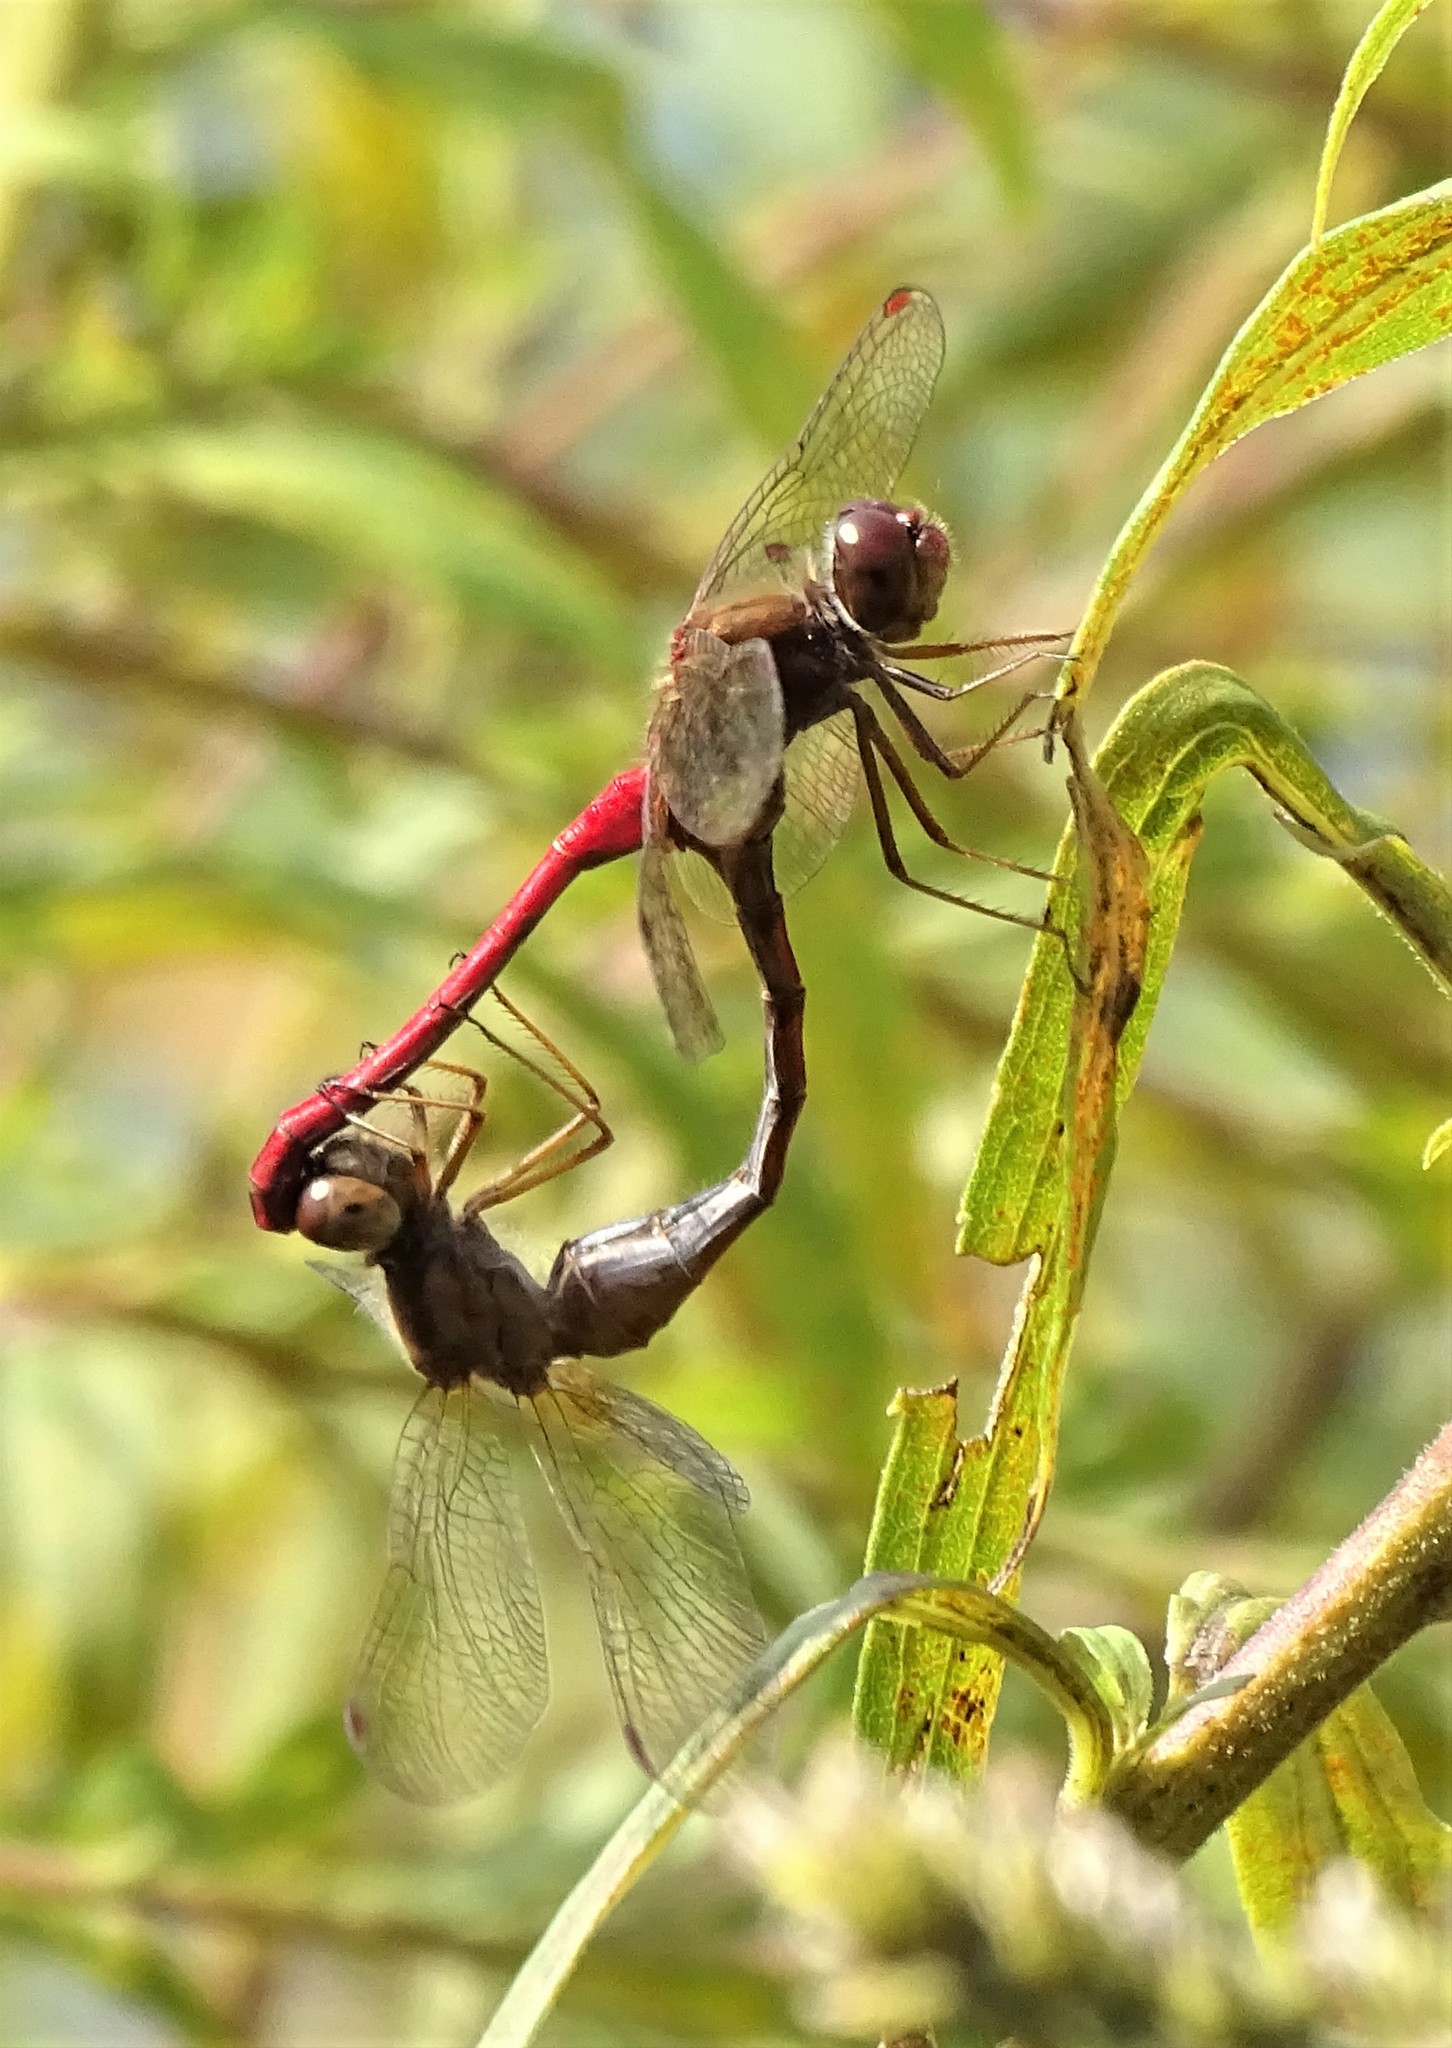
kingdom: Animalia
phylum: Arthropoda
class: Insecta
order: Odonata
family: Libellulidae
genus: Sympetrum
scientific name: Sympetrum vicinum
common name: Autumn meadowhawk
